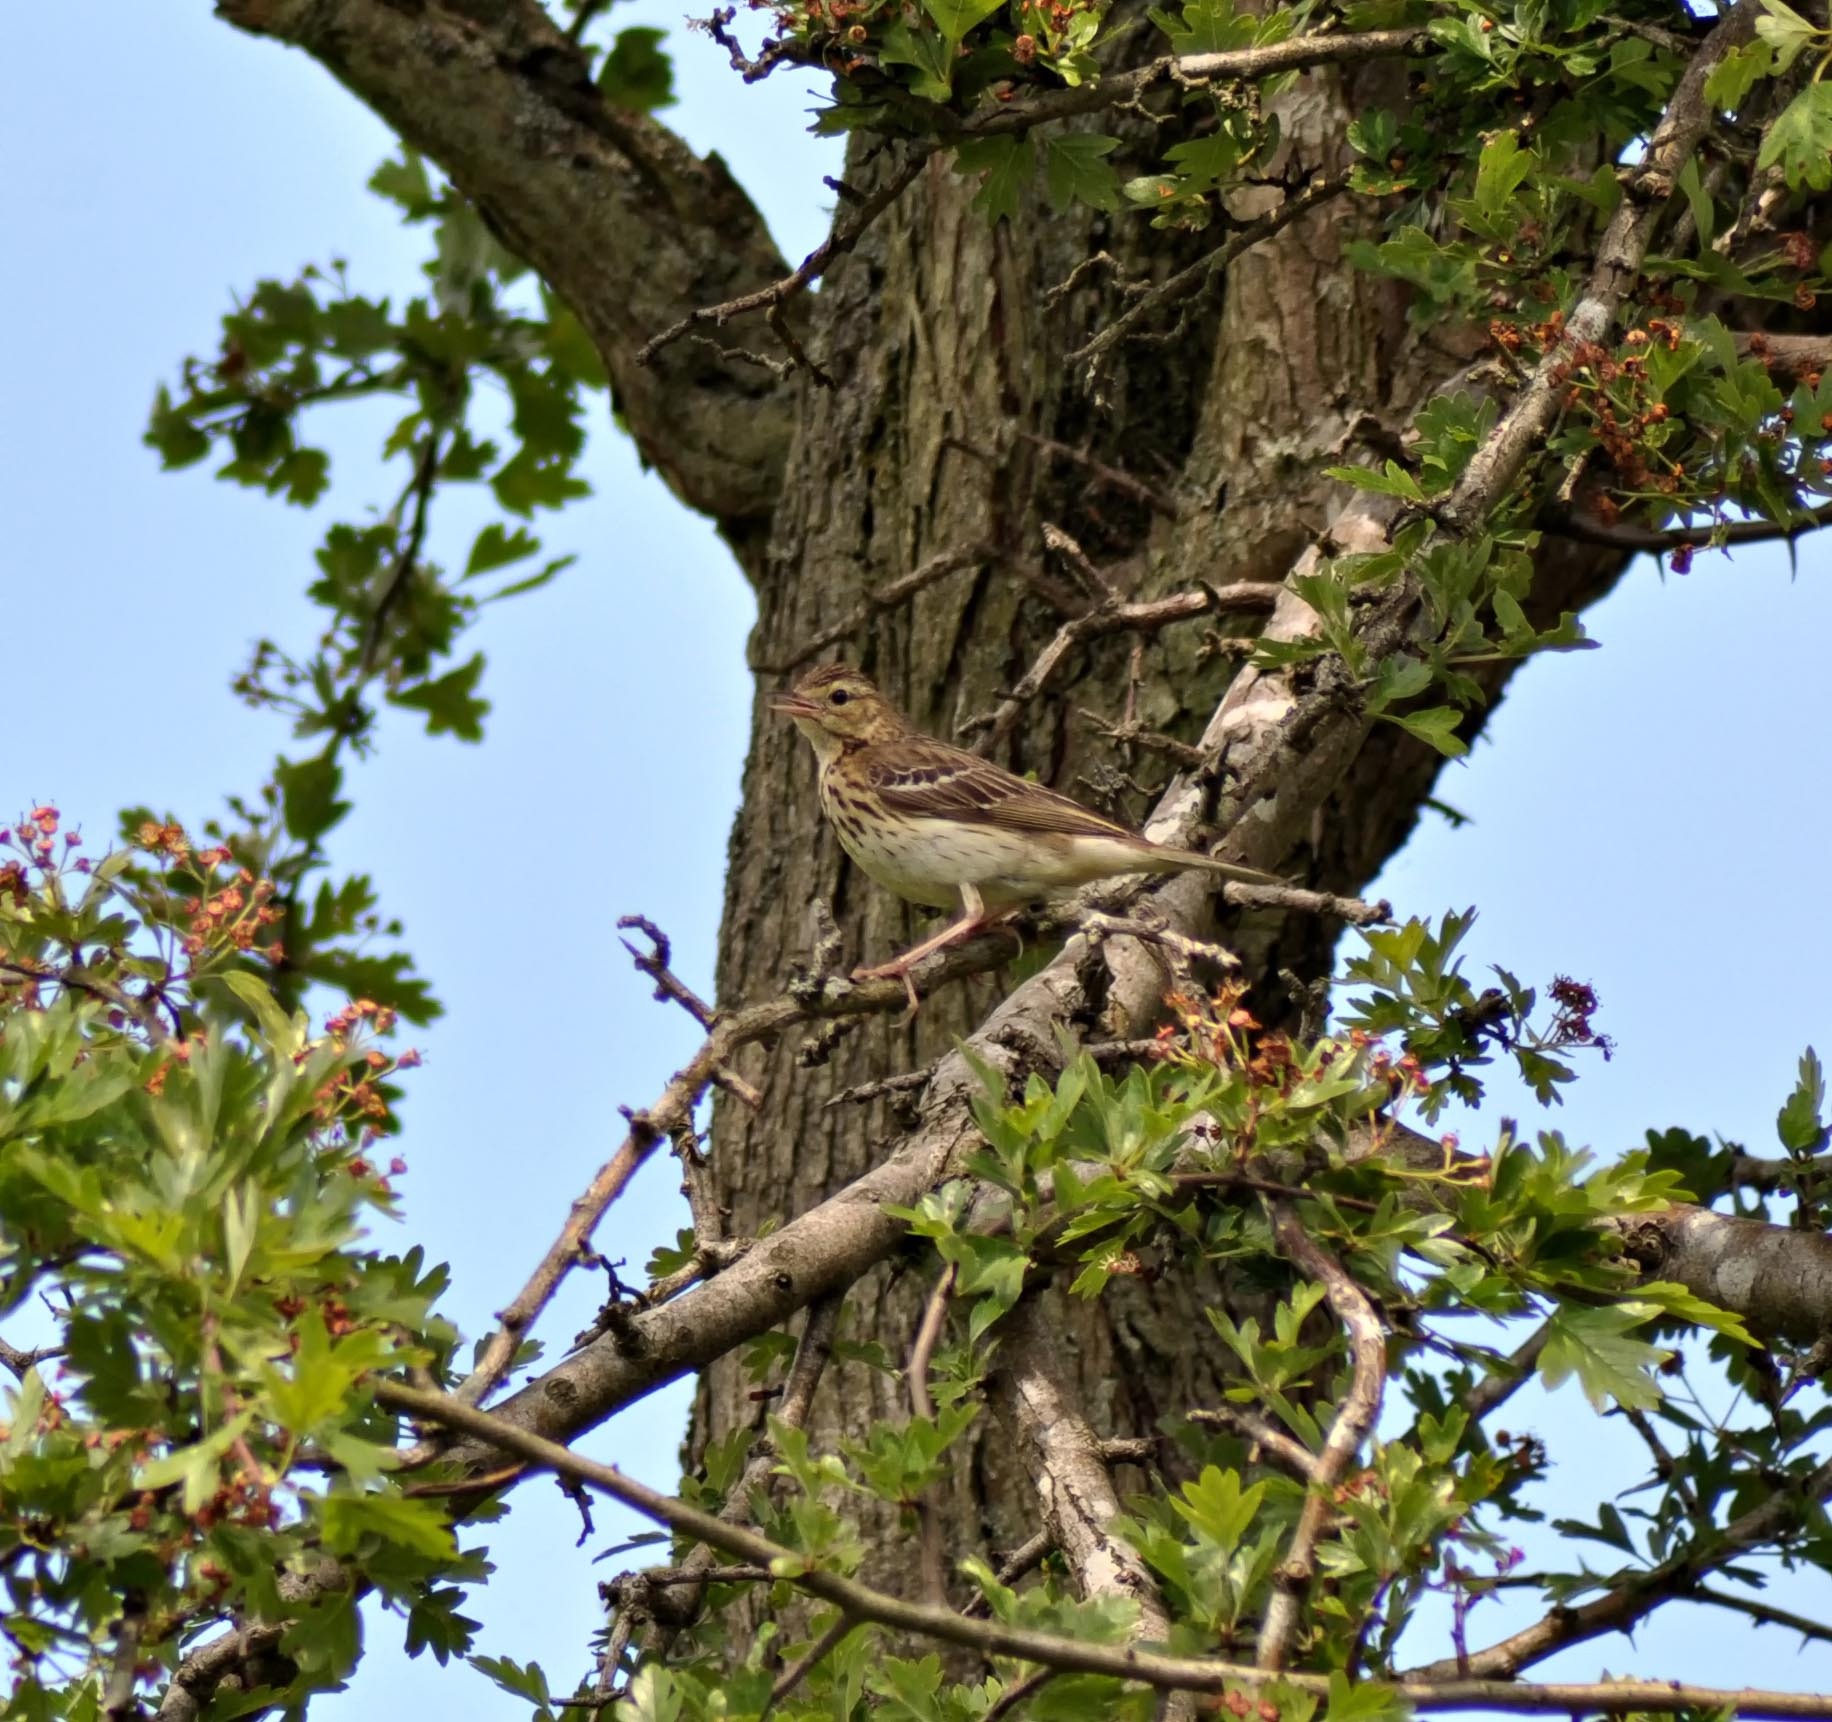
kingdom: Animalia
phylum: Chordata
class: Aves
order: Passeriformes
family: Motacillidae
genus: Anthus
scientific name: Anthus trivialis
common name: Tree pipit
